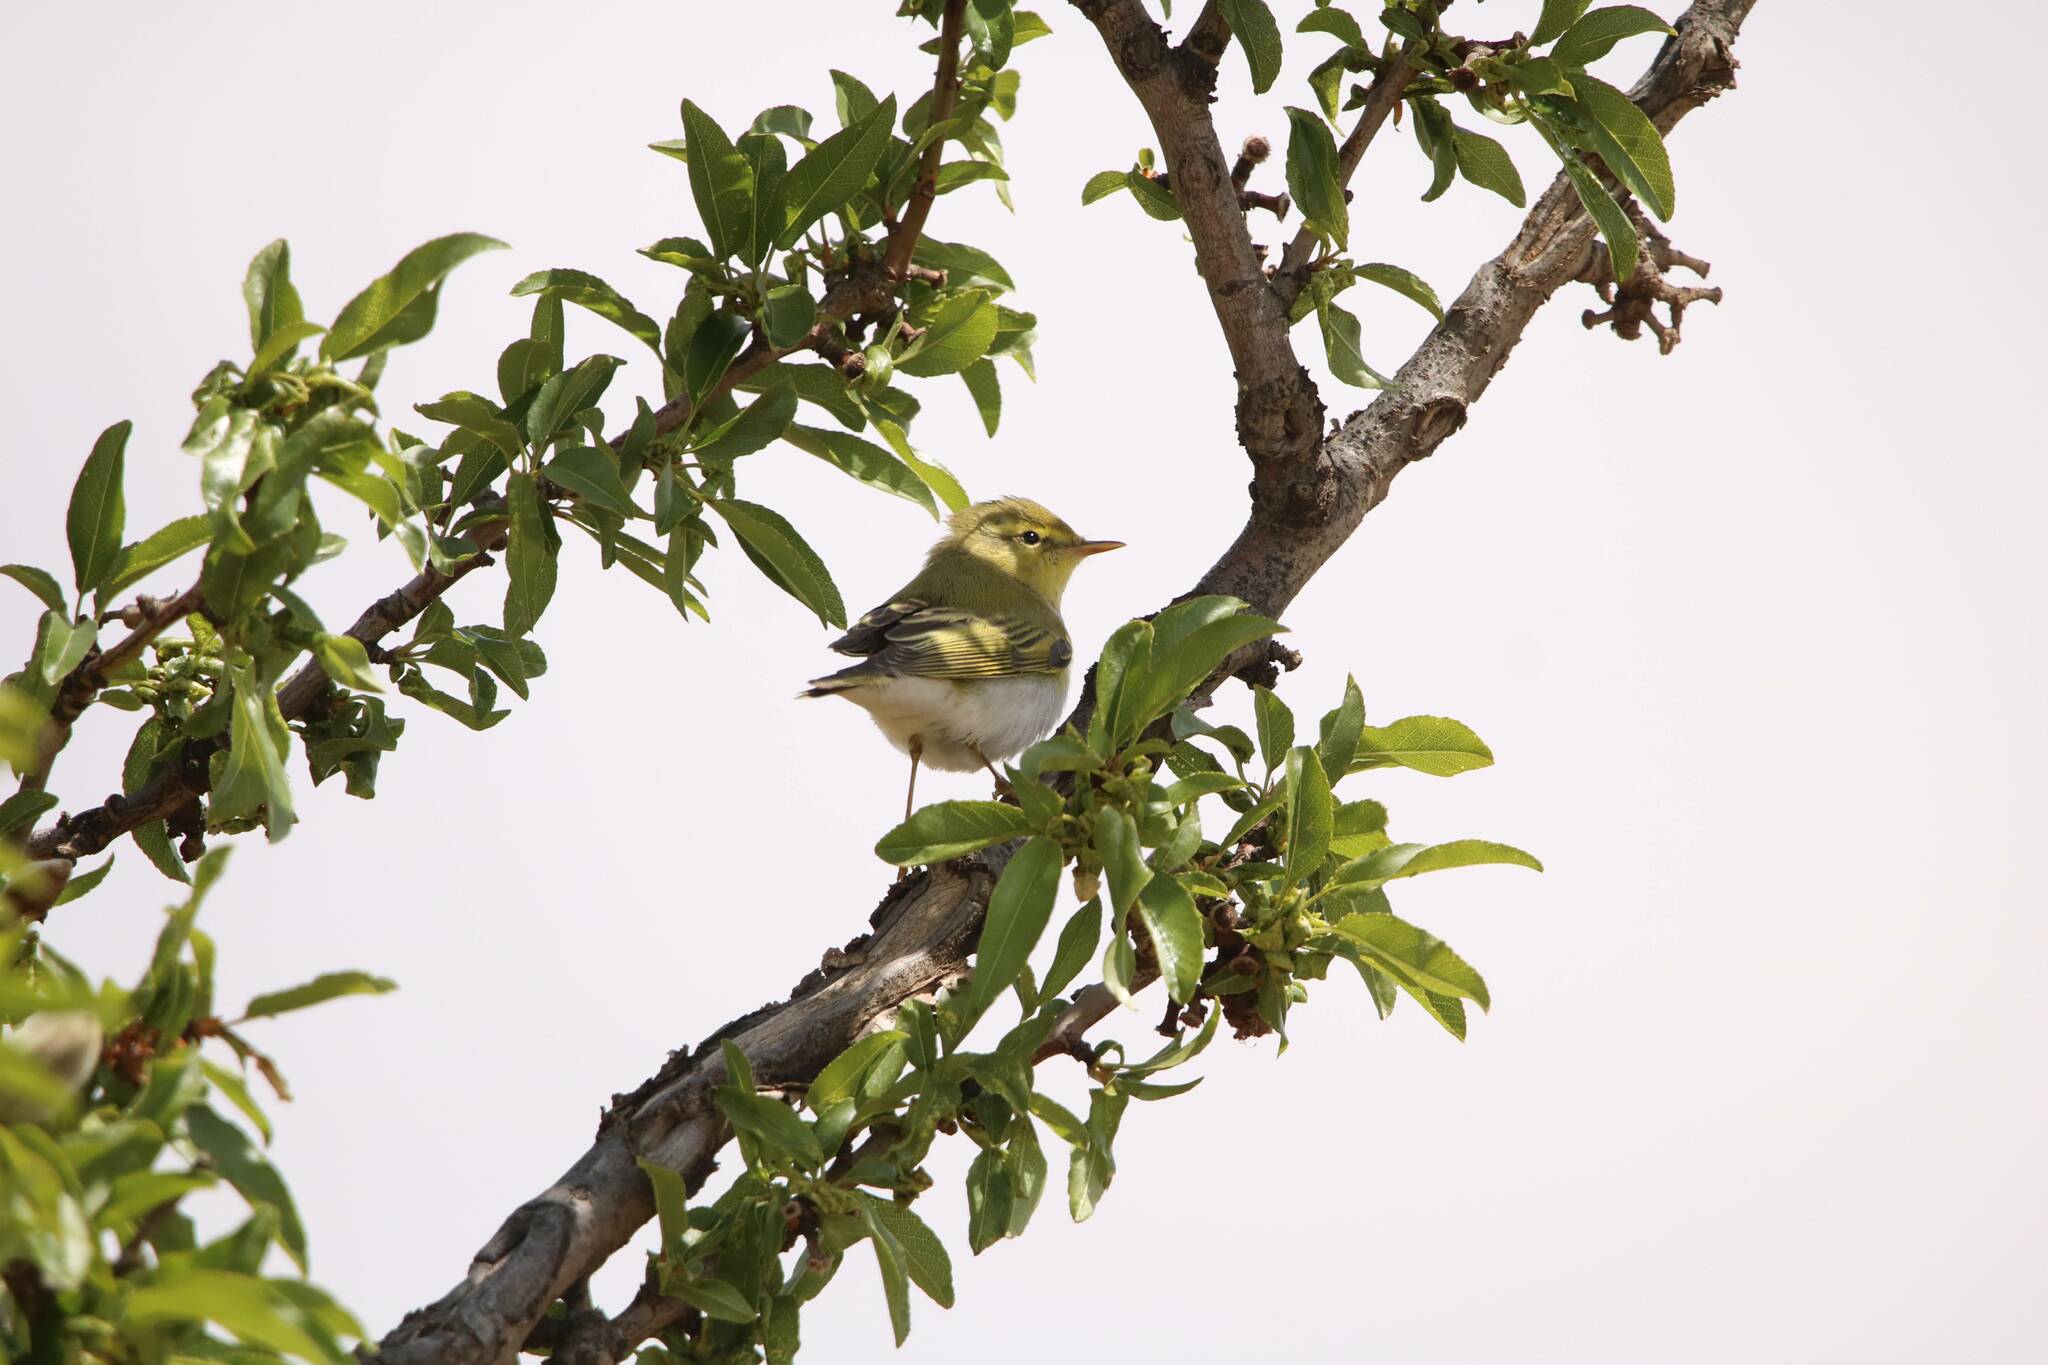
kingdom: Animalia
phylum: Chordata
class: Aves
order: Passeriformes
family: Phylloscopidae
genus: Phylloscopus
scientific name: Phylloscopus sibillatrix
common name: Wood warbler
